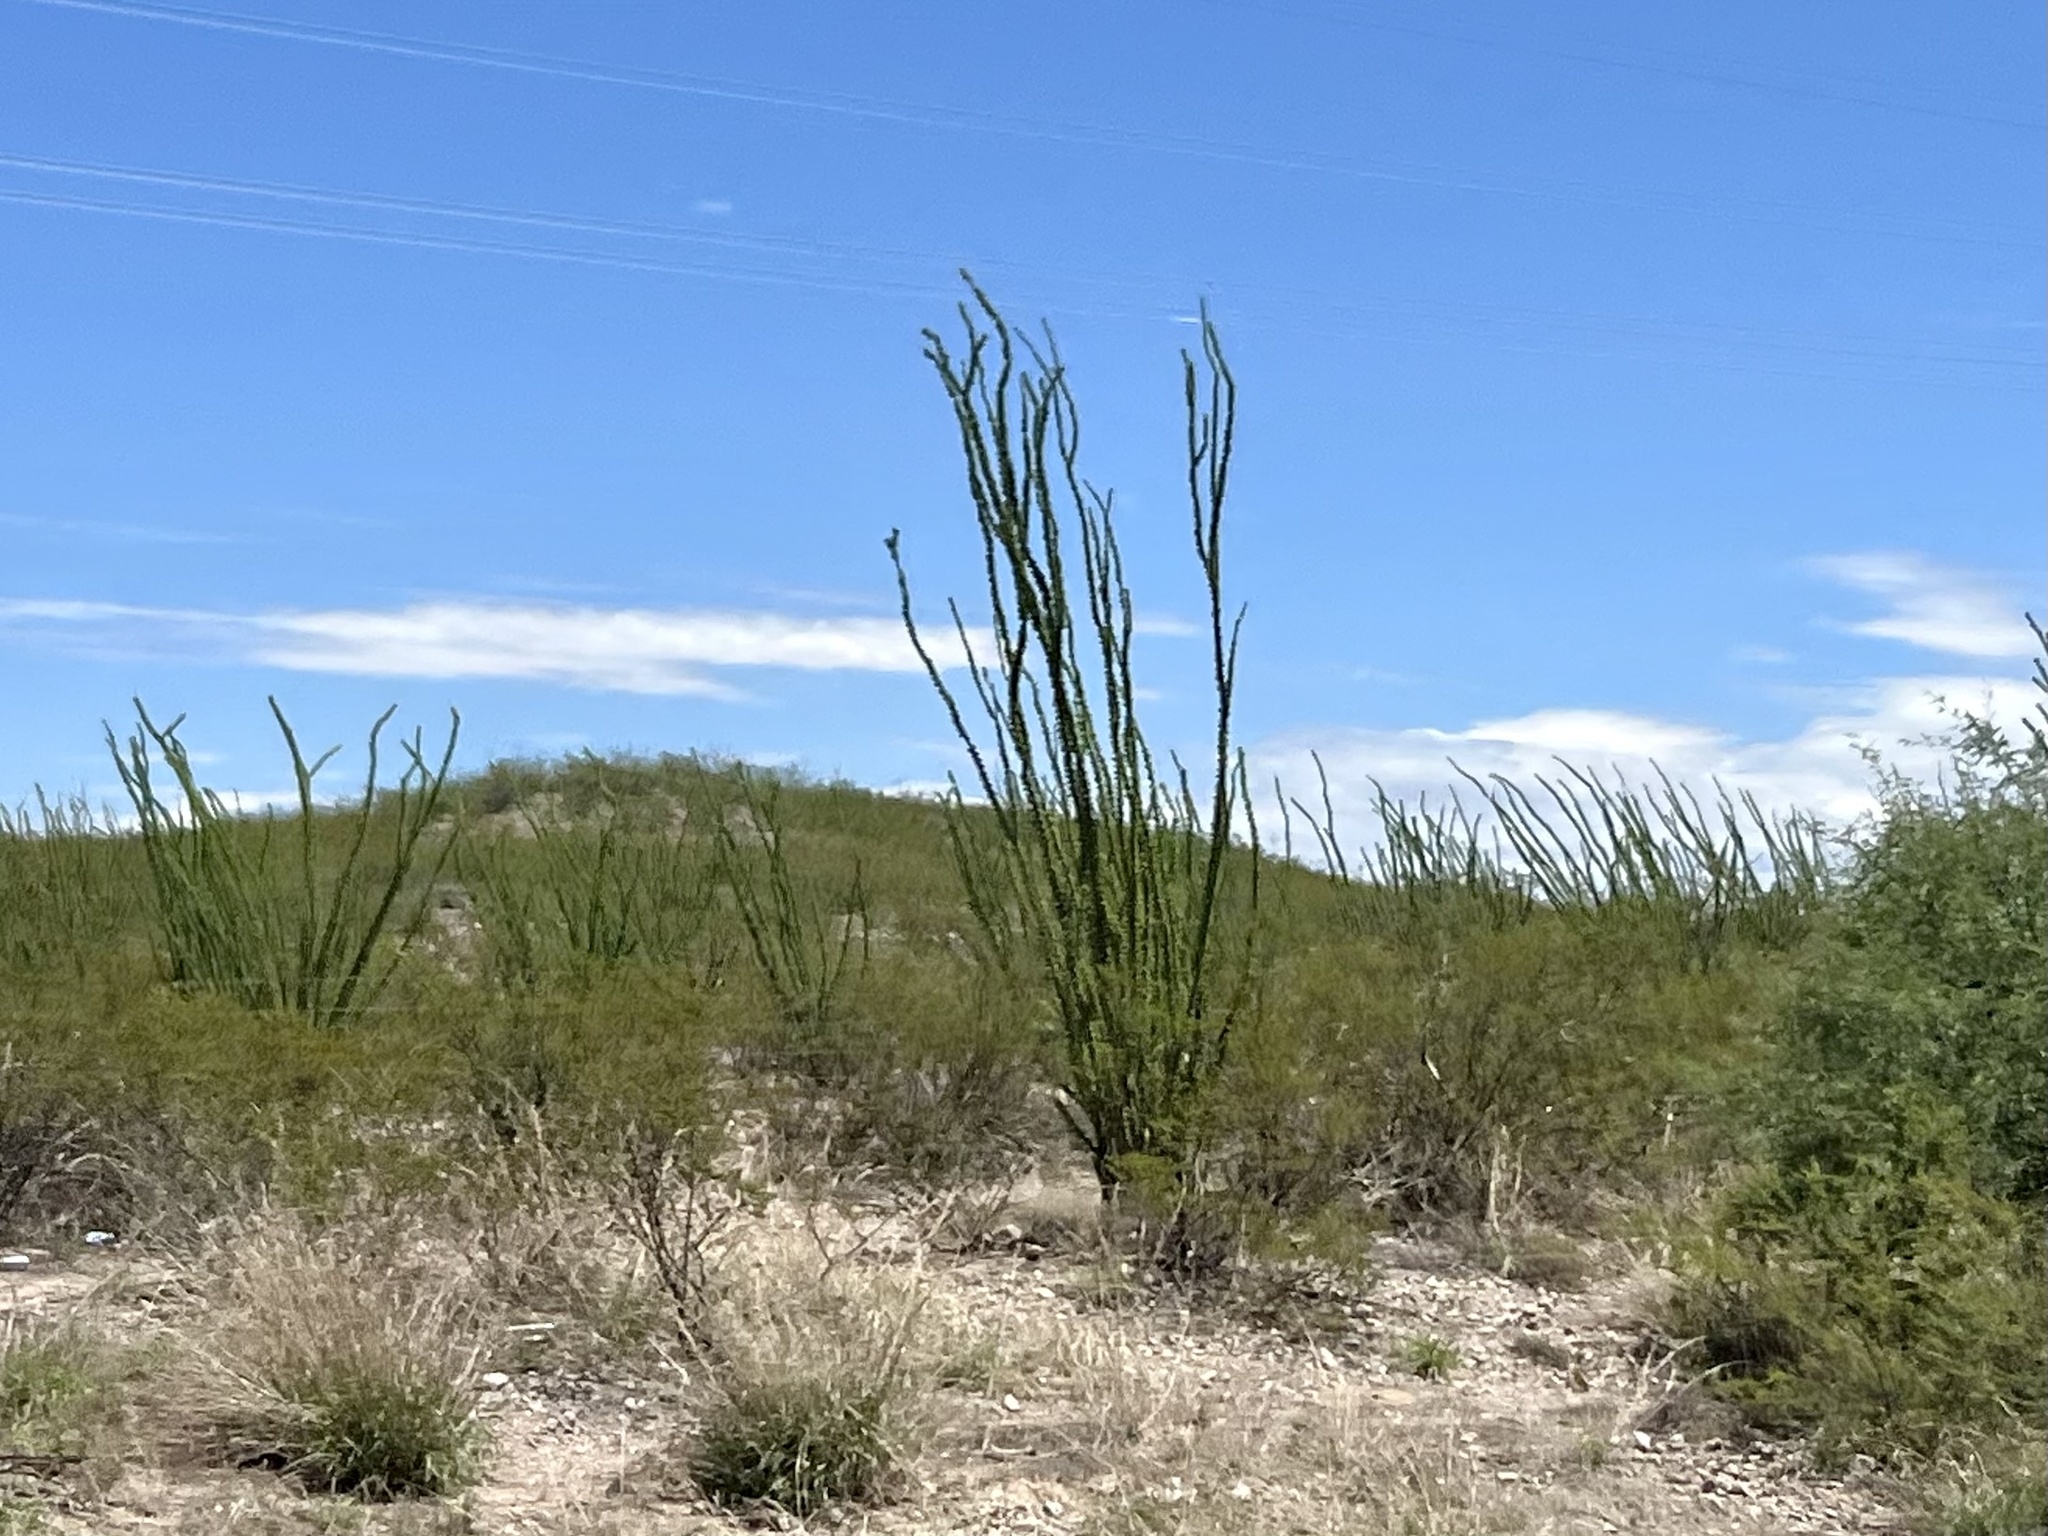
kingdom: Plantae
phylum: Tracheophyta
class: Magnoliopsida
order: Ericales
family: Fouquieriaceae
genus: Fouquieria
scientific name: Fouquieria splendens
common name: Vine-cactus
